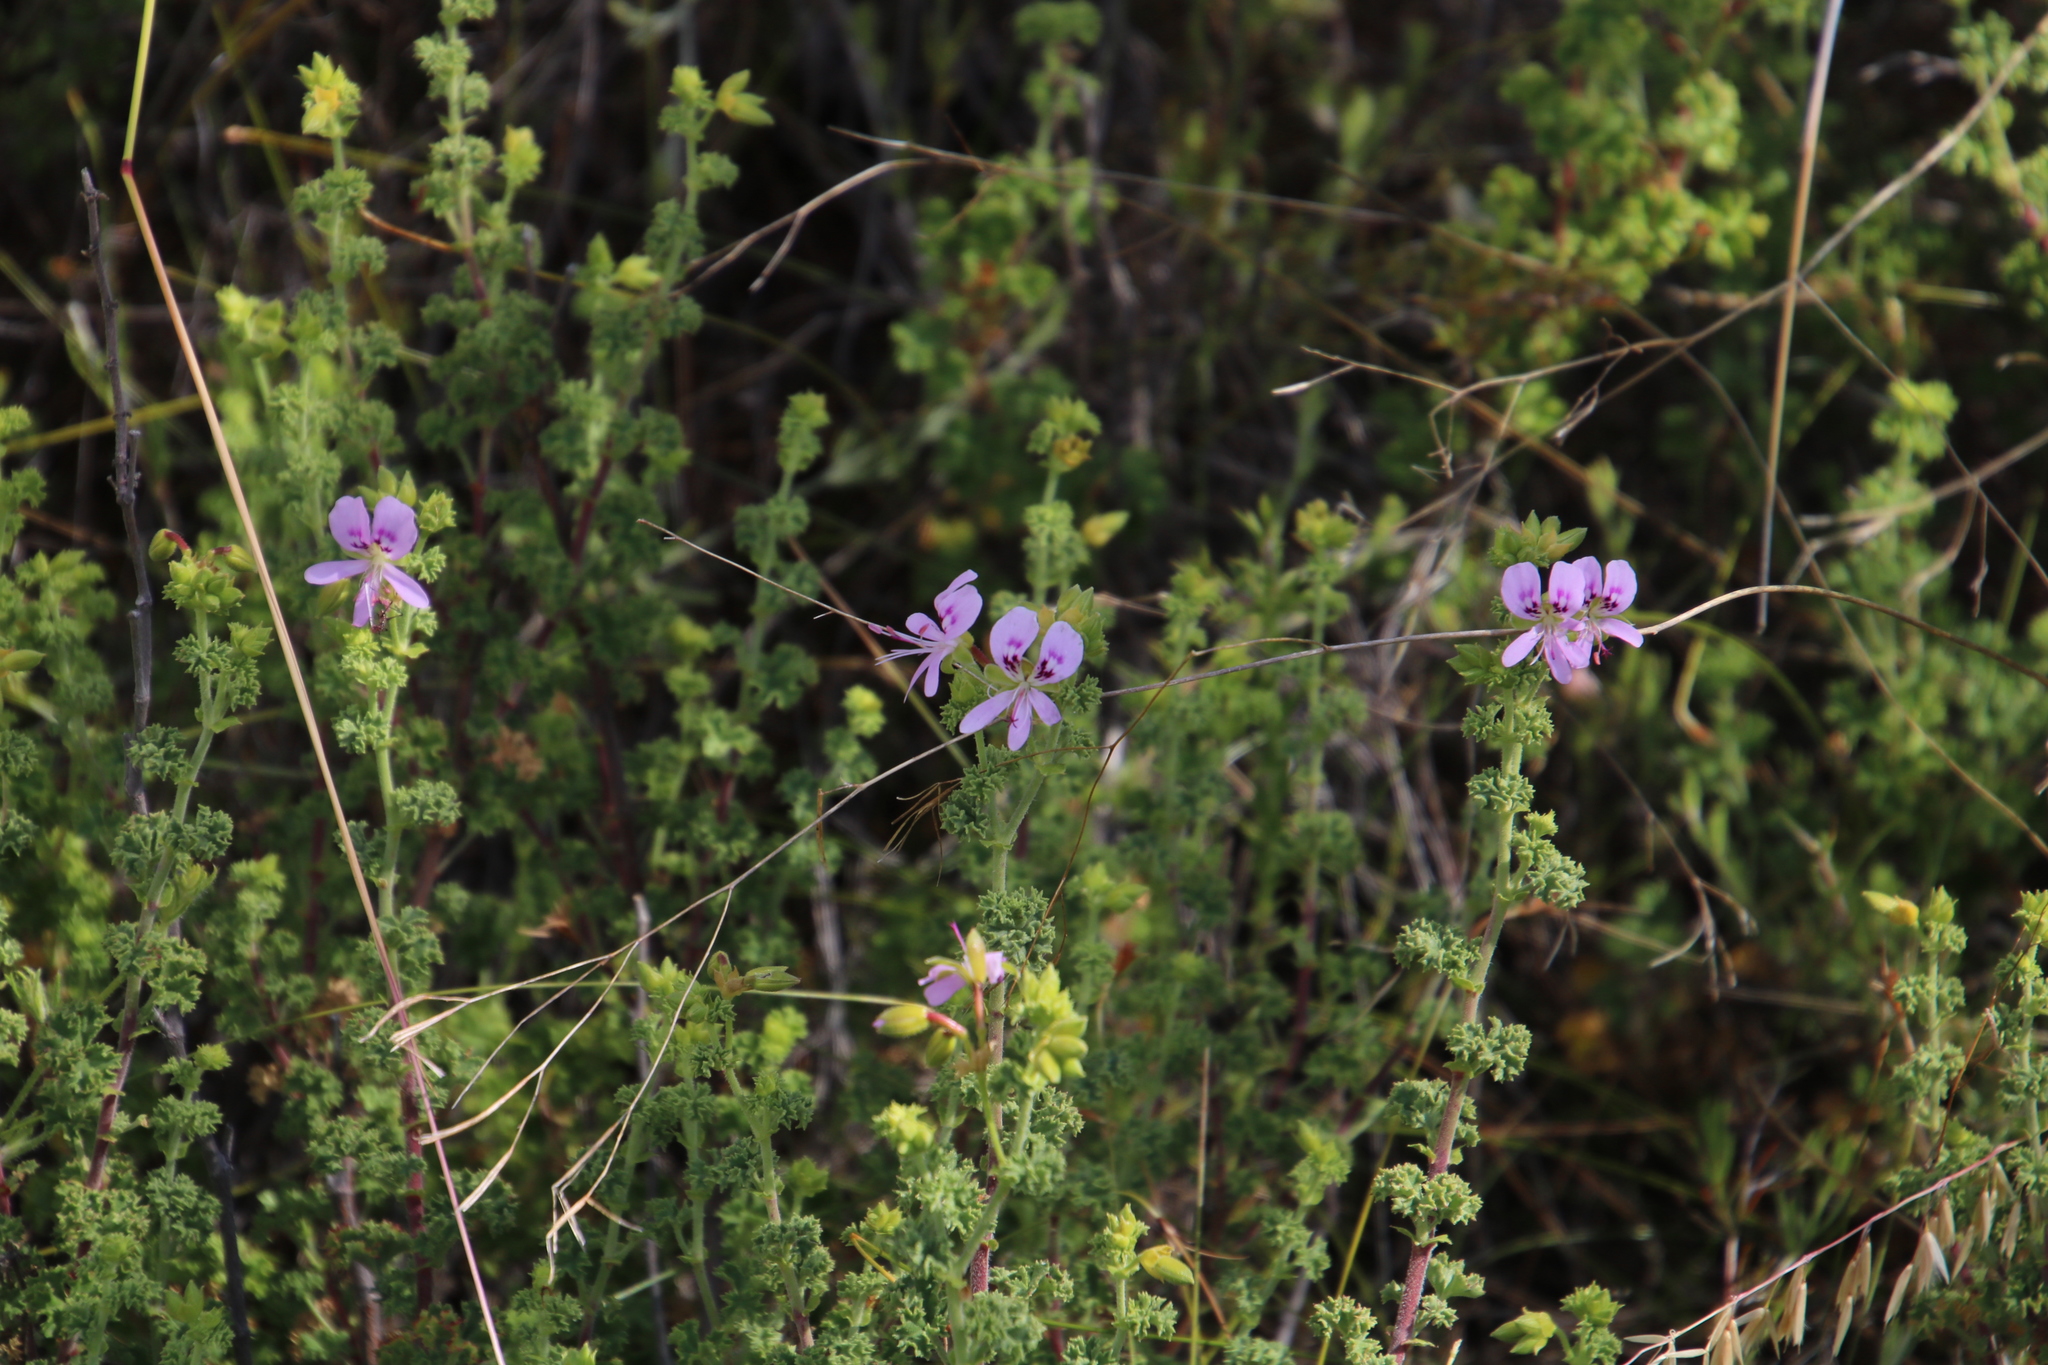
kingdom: Plantae
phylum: Tracheophyta
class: Magnoliopsida
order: Geraniales
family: Geraniaceae
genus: Pelargonium
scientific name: Pelargonium englerianum
